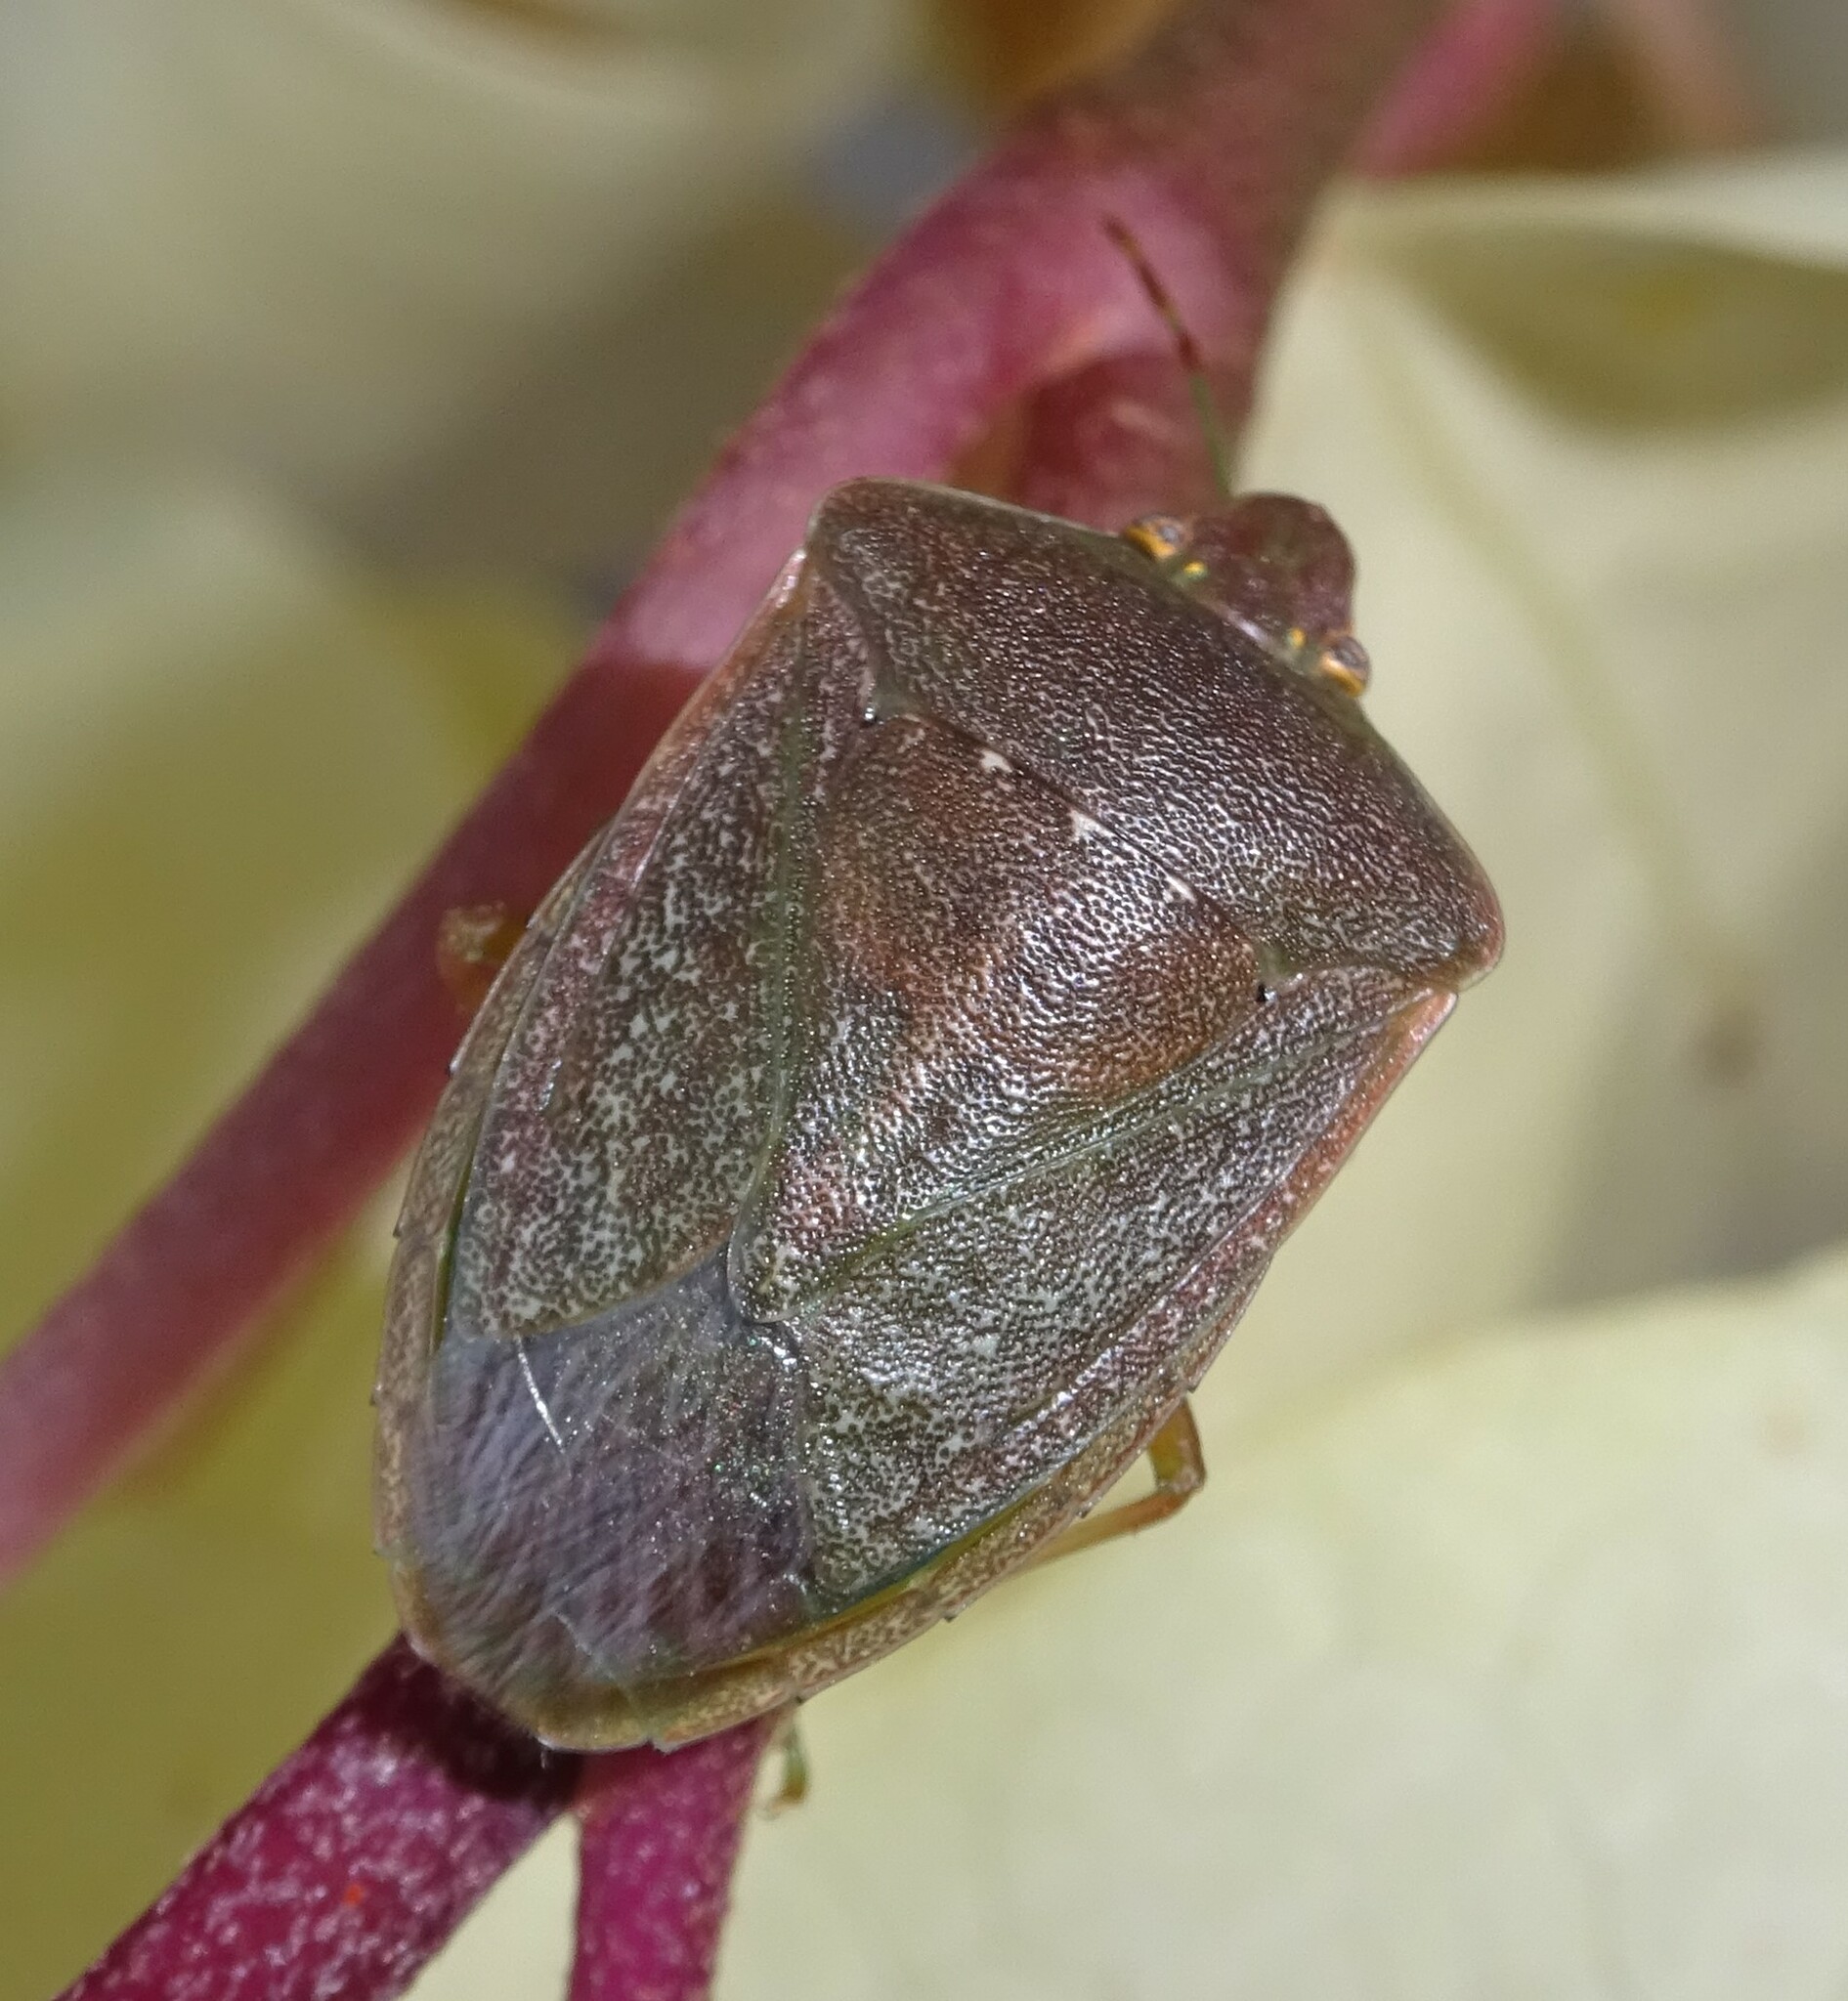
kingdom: Animalia
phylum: Arthropoda
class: Insecta
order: Hemiptera
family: Pentatomidae
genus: Nezara
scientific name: Nezara viridula
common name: Southern green stink bug
